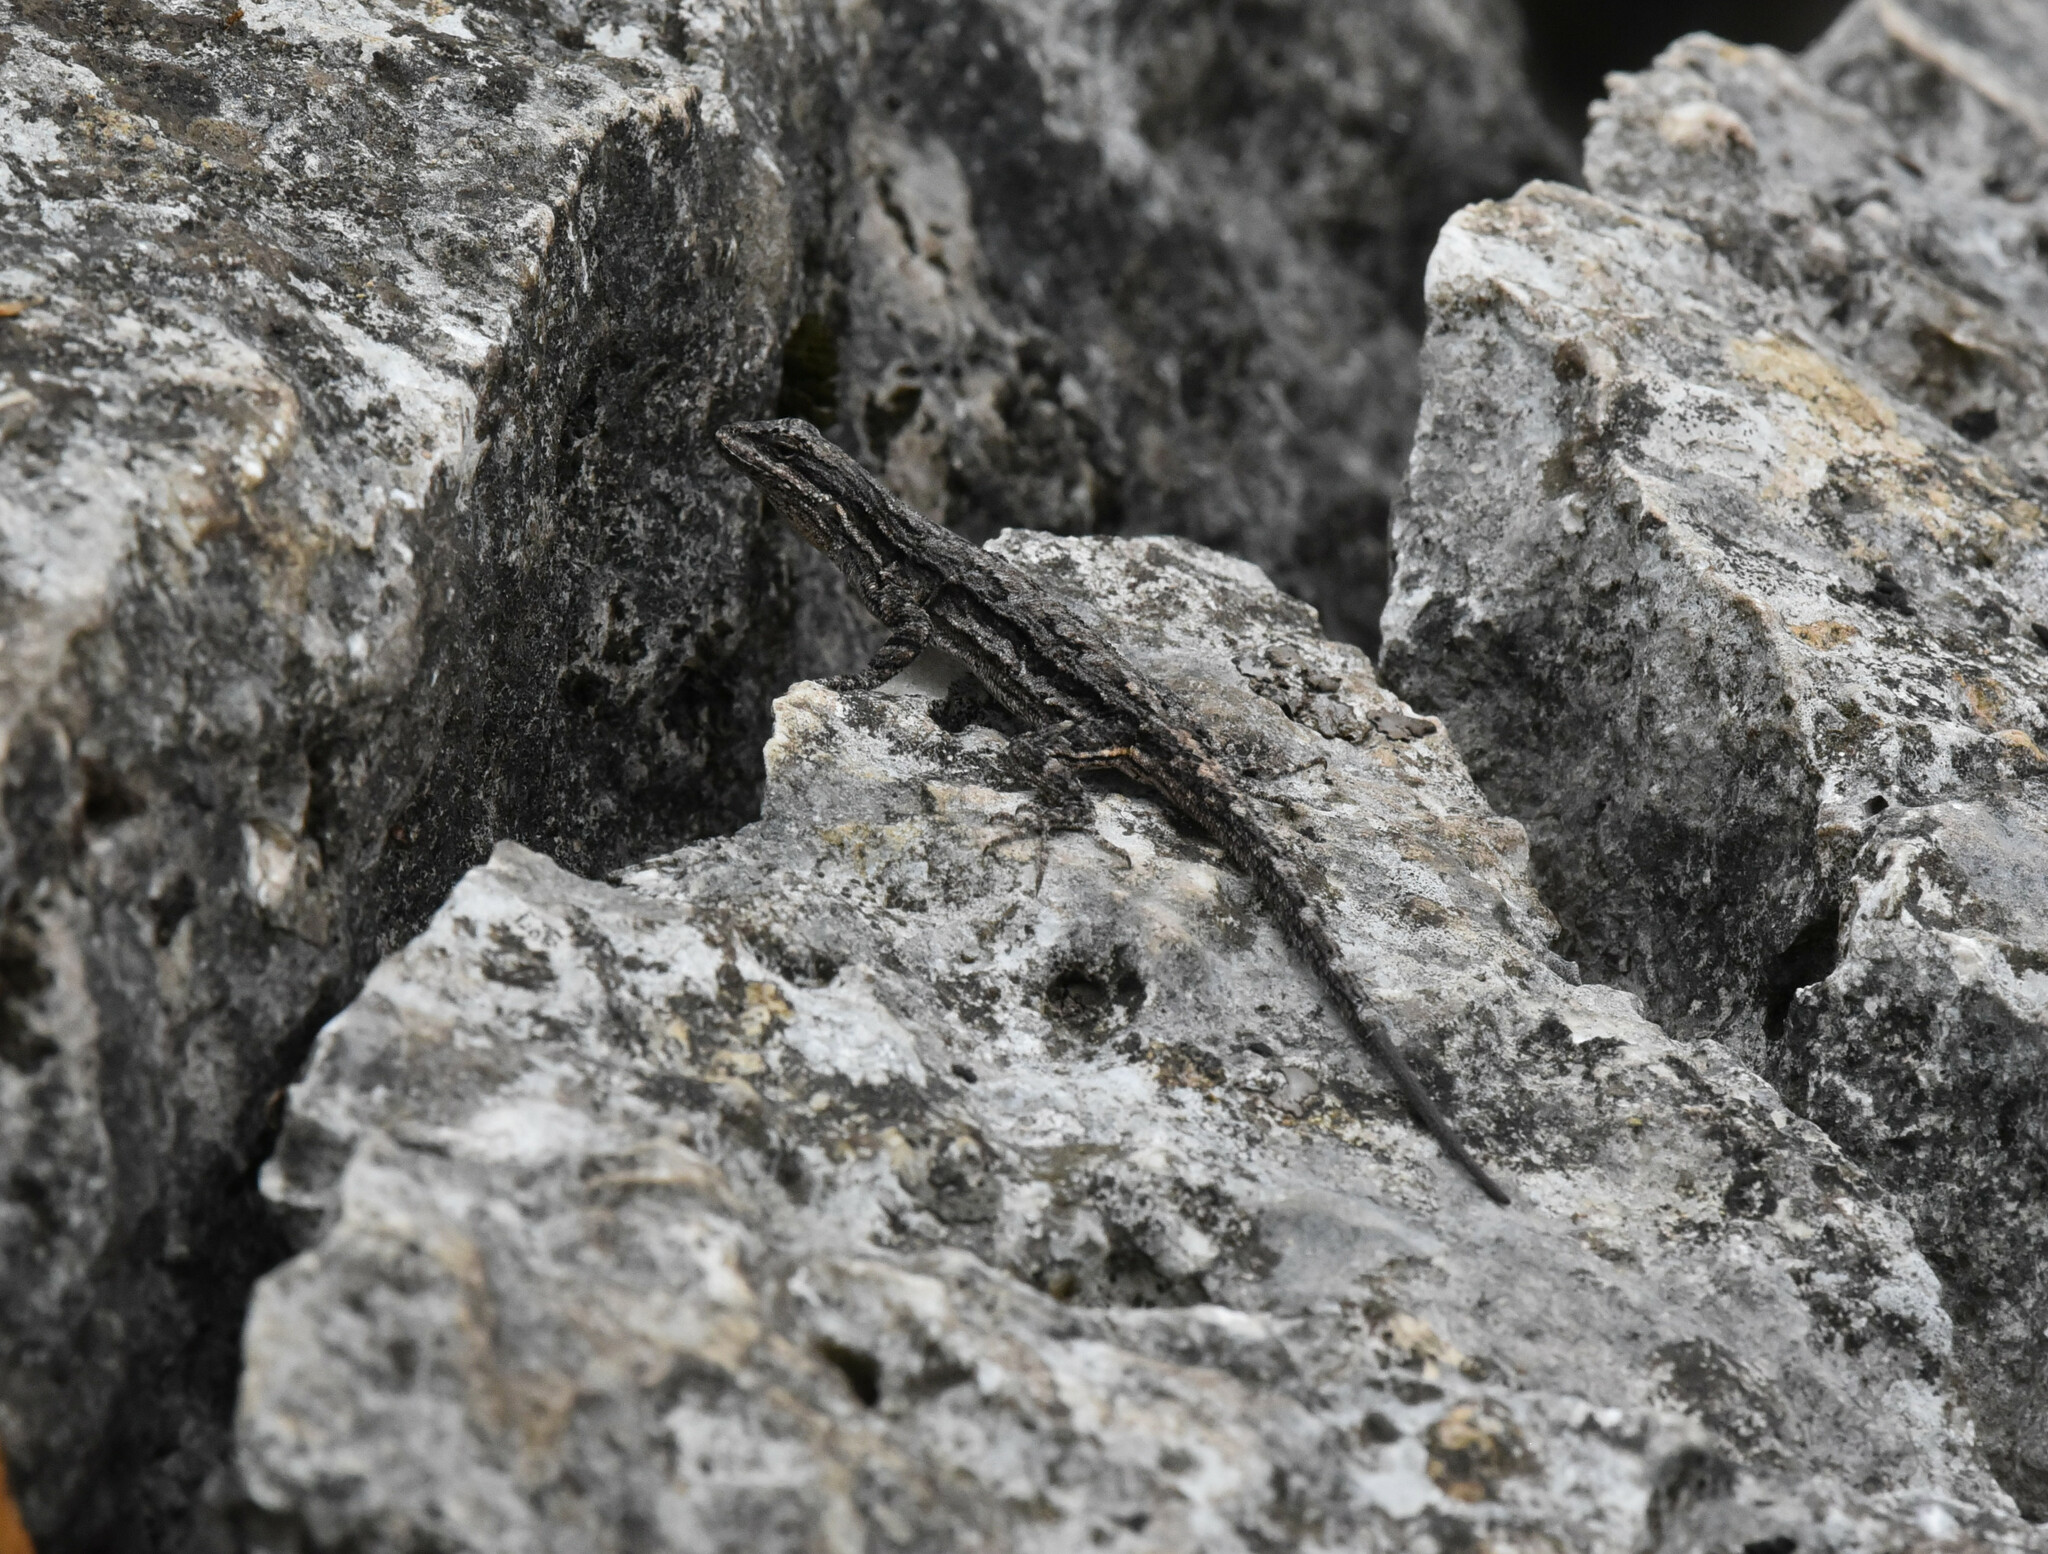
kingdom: Animalia
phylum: Chordata
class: Squamata
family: Phrynosomatidae
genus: Urosaurus
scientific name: Urosaurus ornatus
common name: Ornate tree lizard
